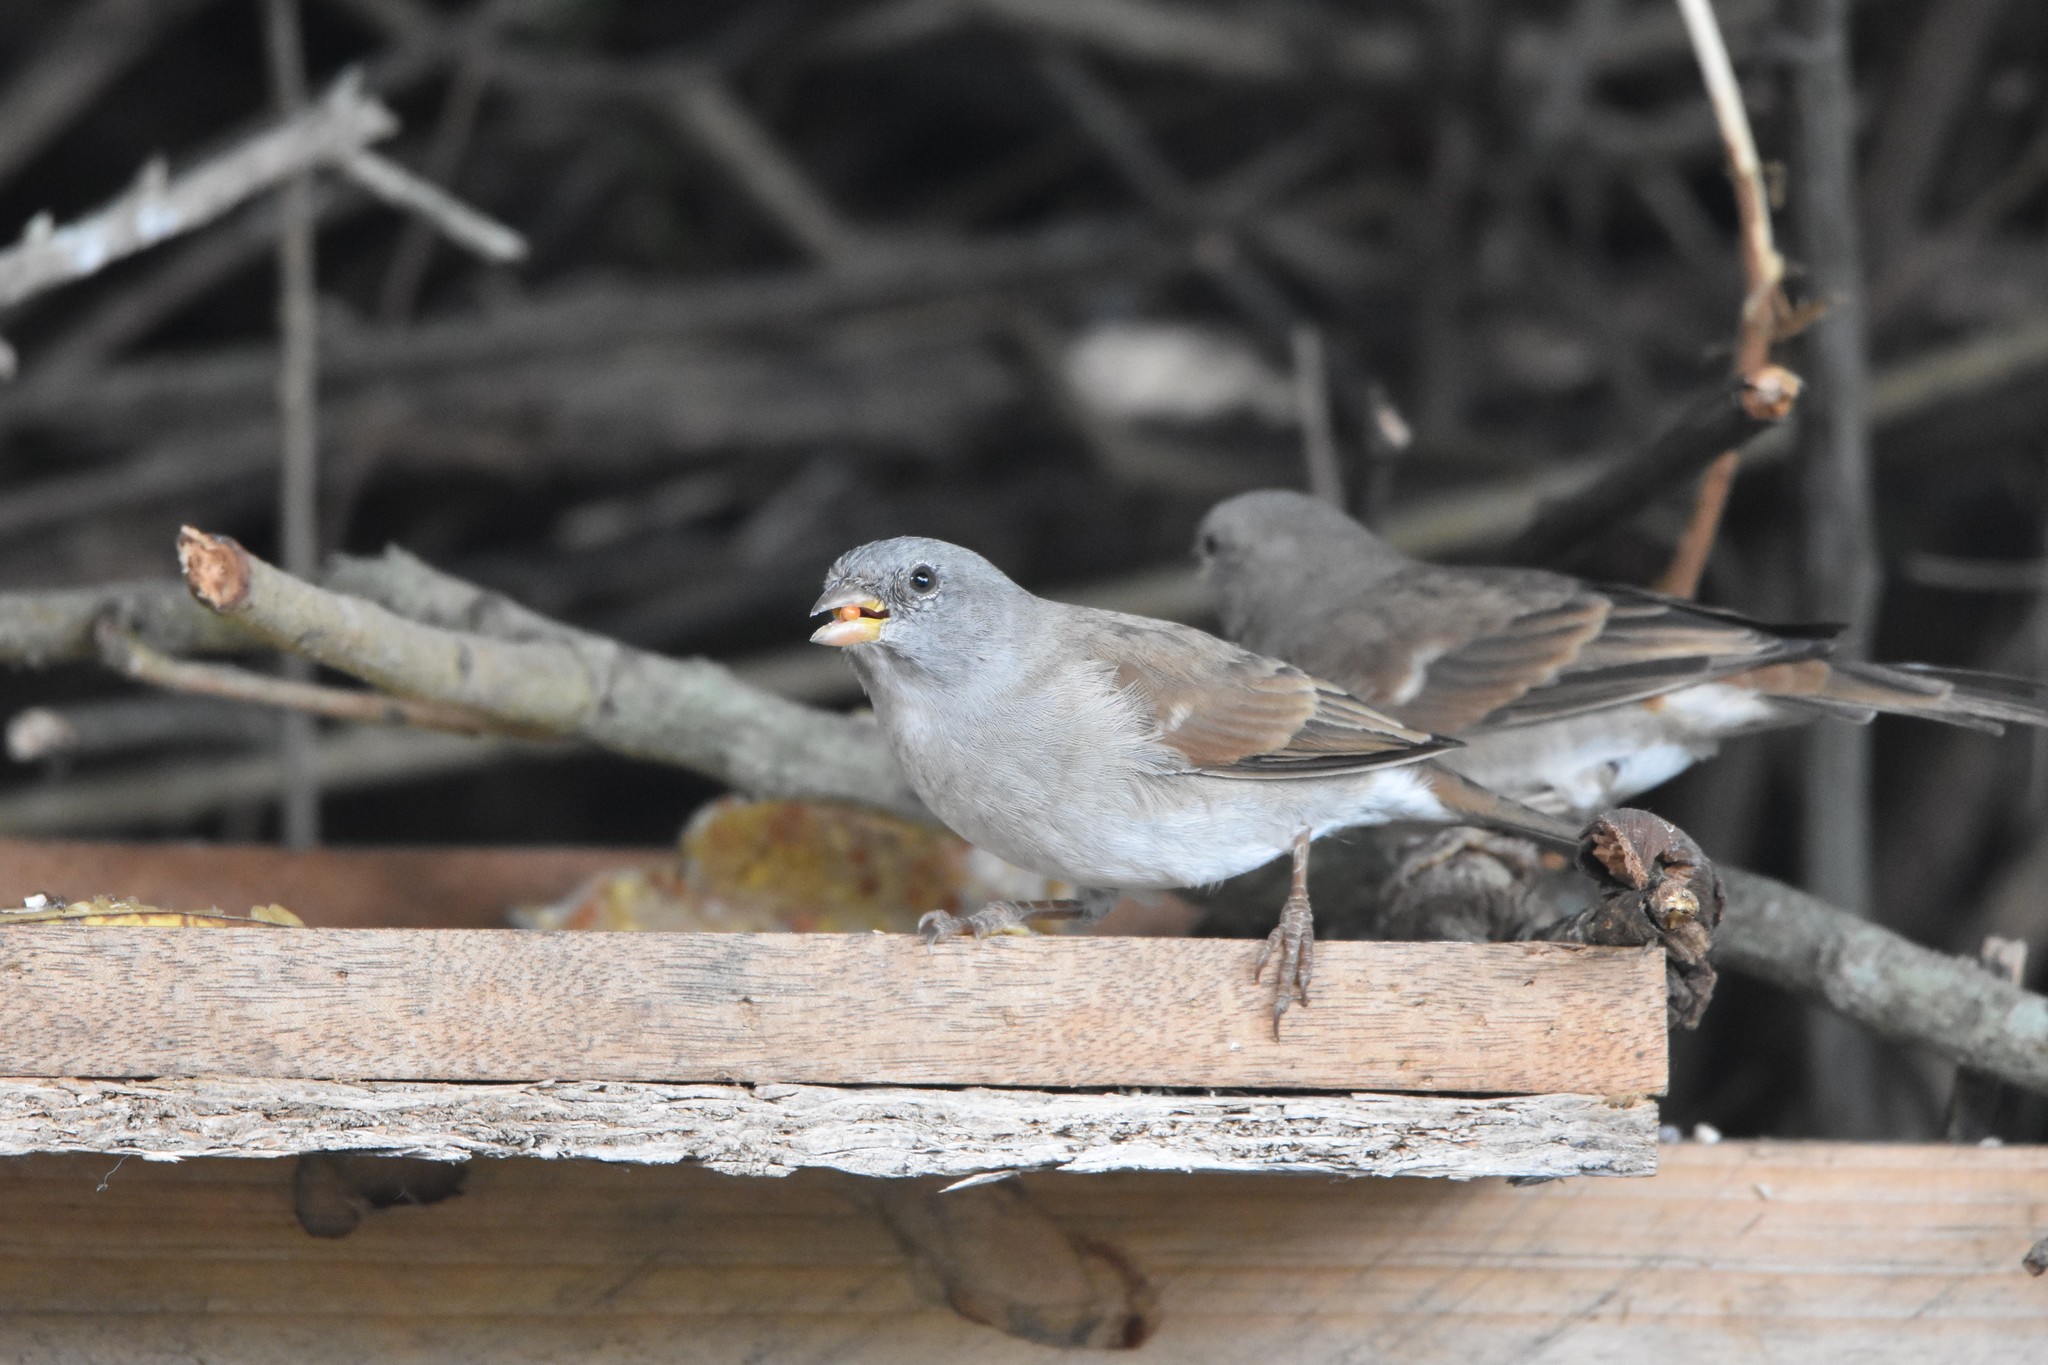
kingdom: Animalia
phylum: Chordata
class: Aves
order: Passeriformes
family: Passeridae
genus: Passer
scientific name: Passer diffusus
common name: Southern grey-headed sparrow
